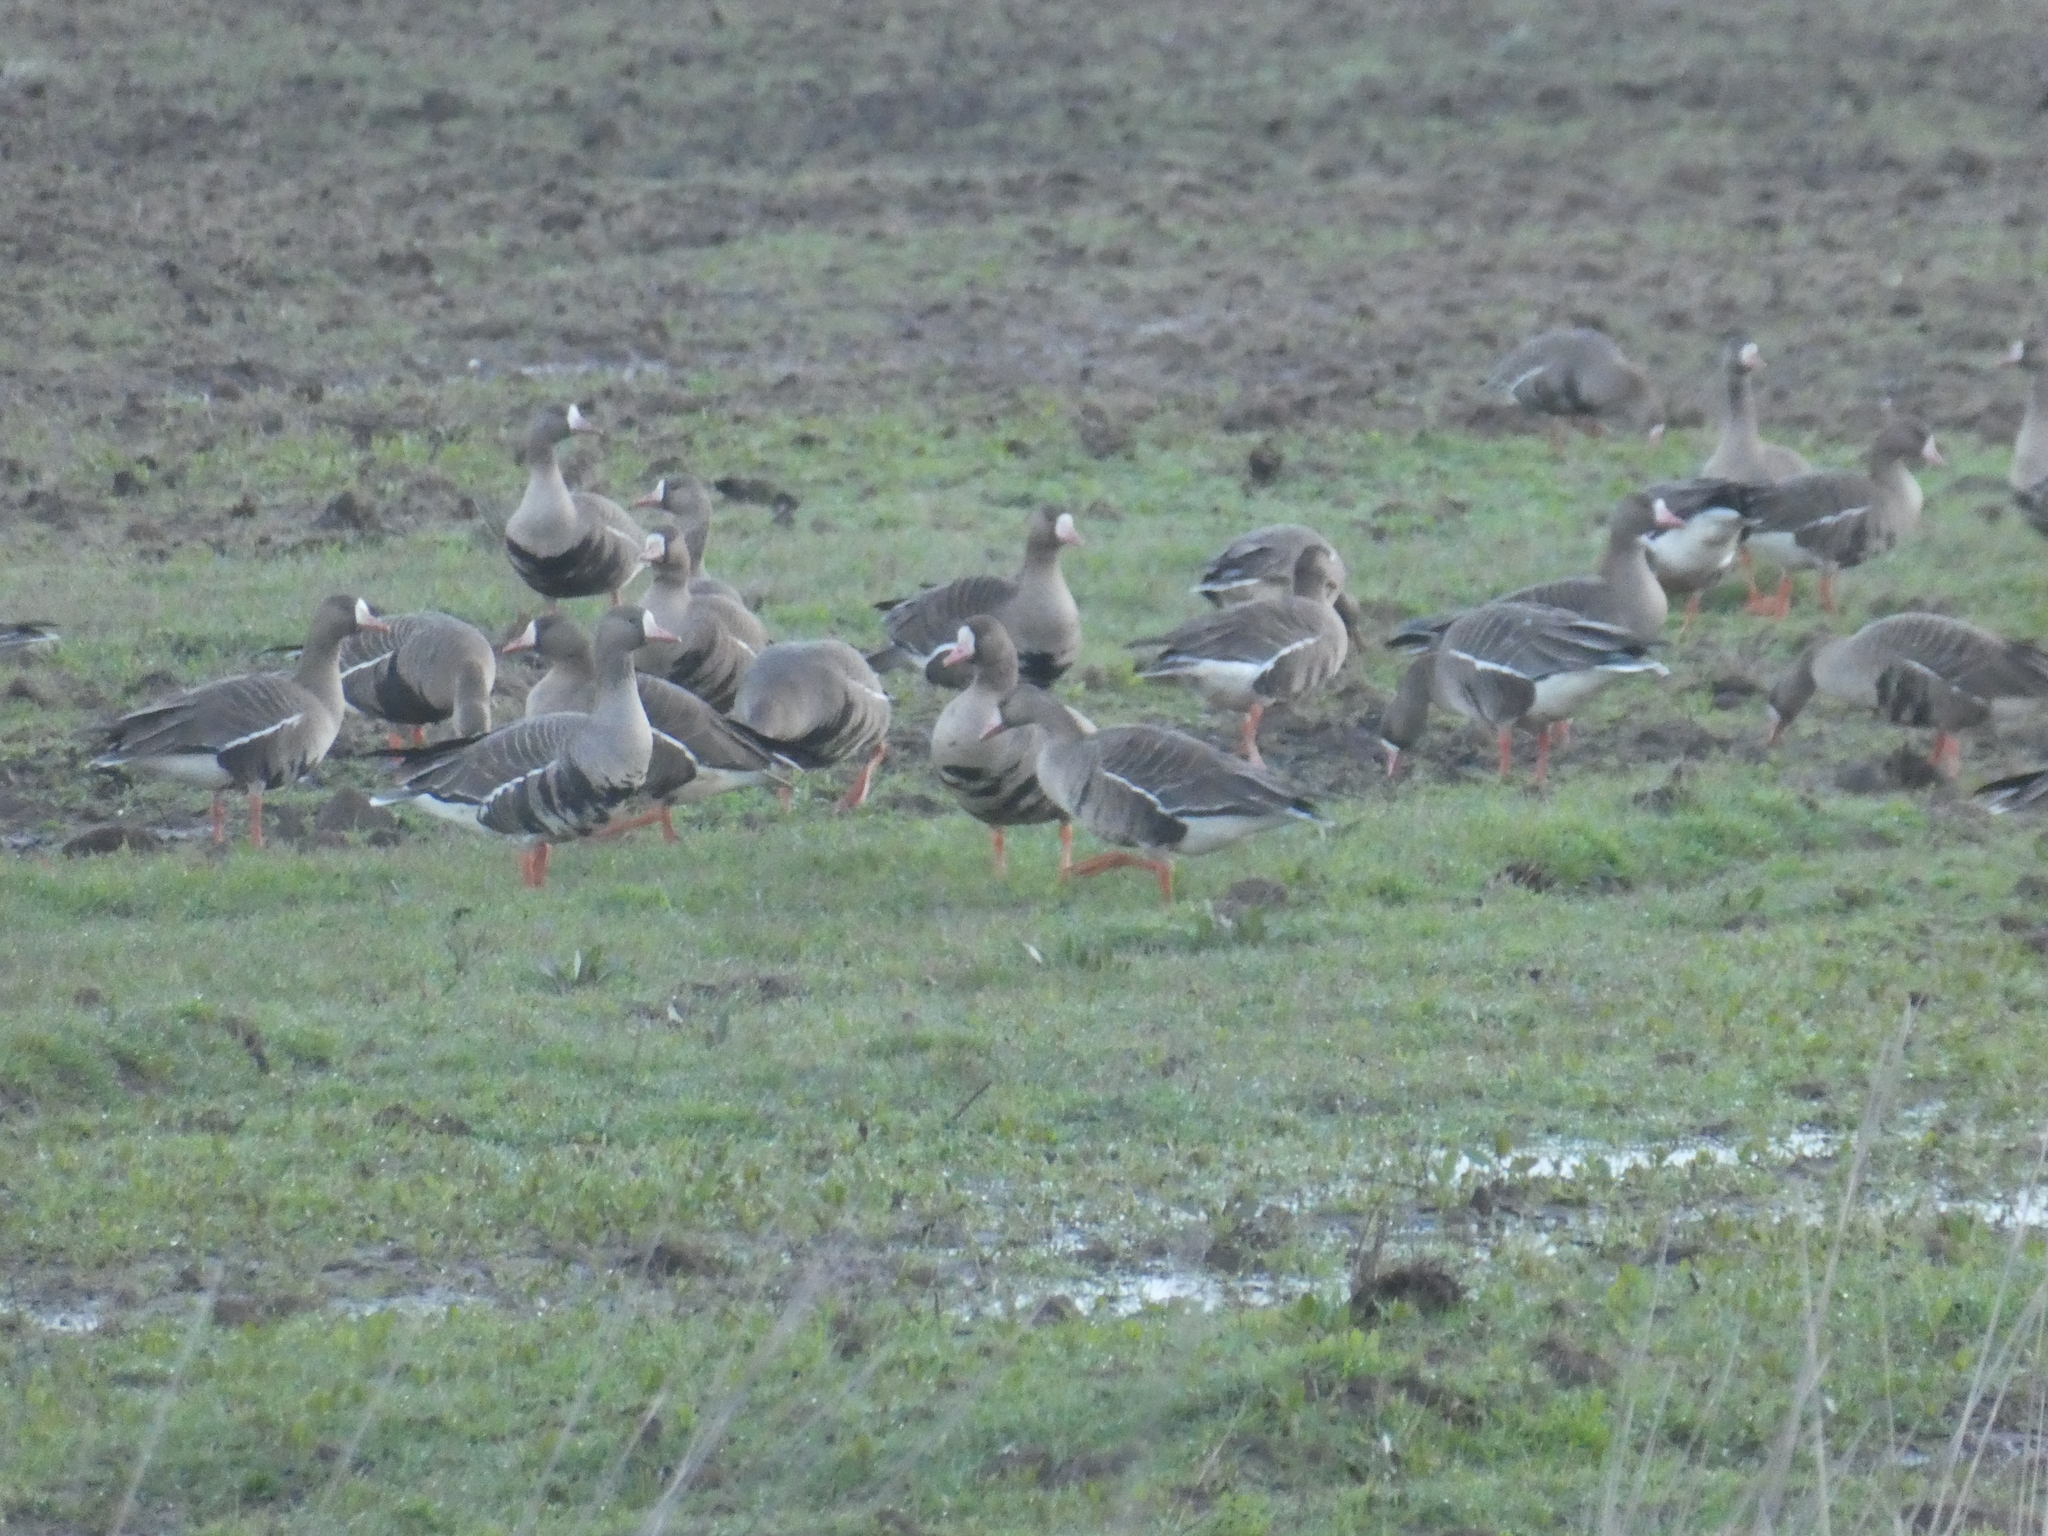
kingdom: Animalia
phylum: Chordata
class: Aves
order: Anseriformes
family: Anatidae
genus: Anser
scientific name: Anser albifrons
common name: Greater white-fronted goose
